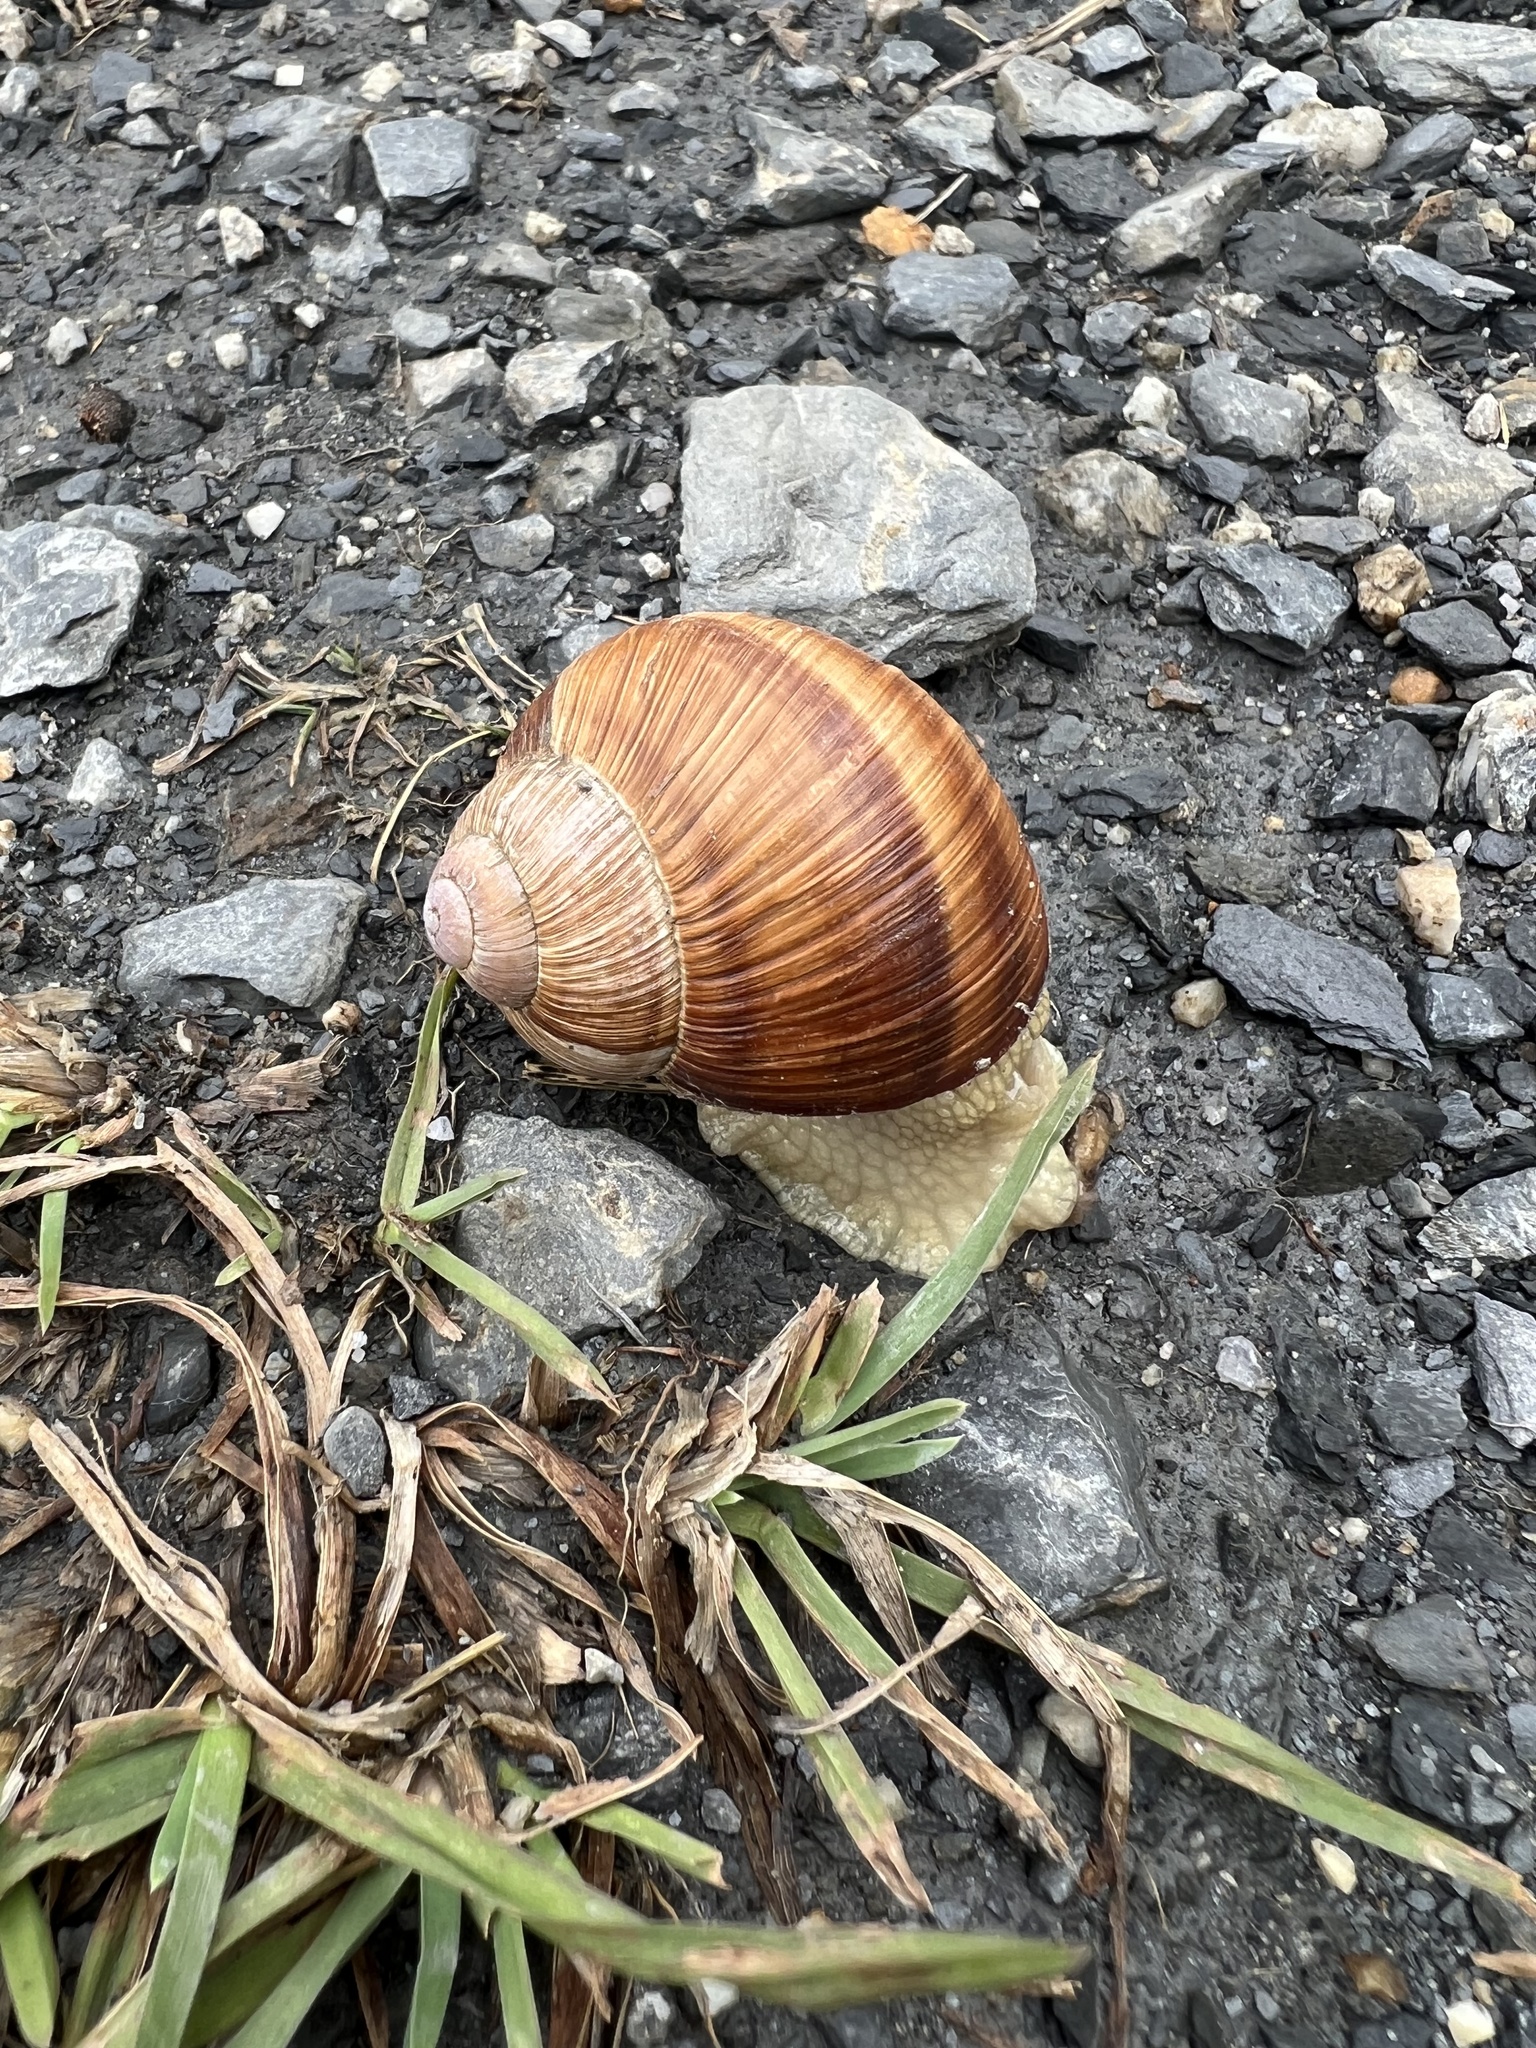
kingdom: Animalia
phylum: Mollusca
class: Gastropoda
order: Stylommatophora
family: Helicidae
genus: Helix
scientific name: Helix pomatia
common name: Roman snail
